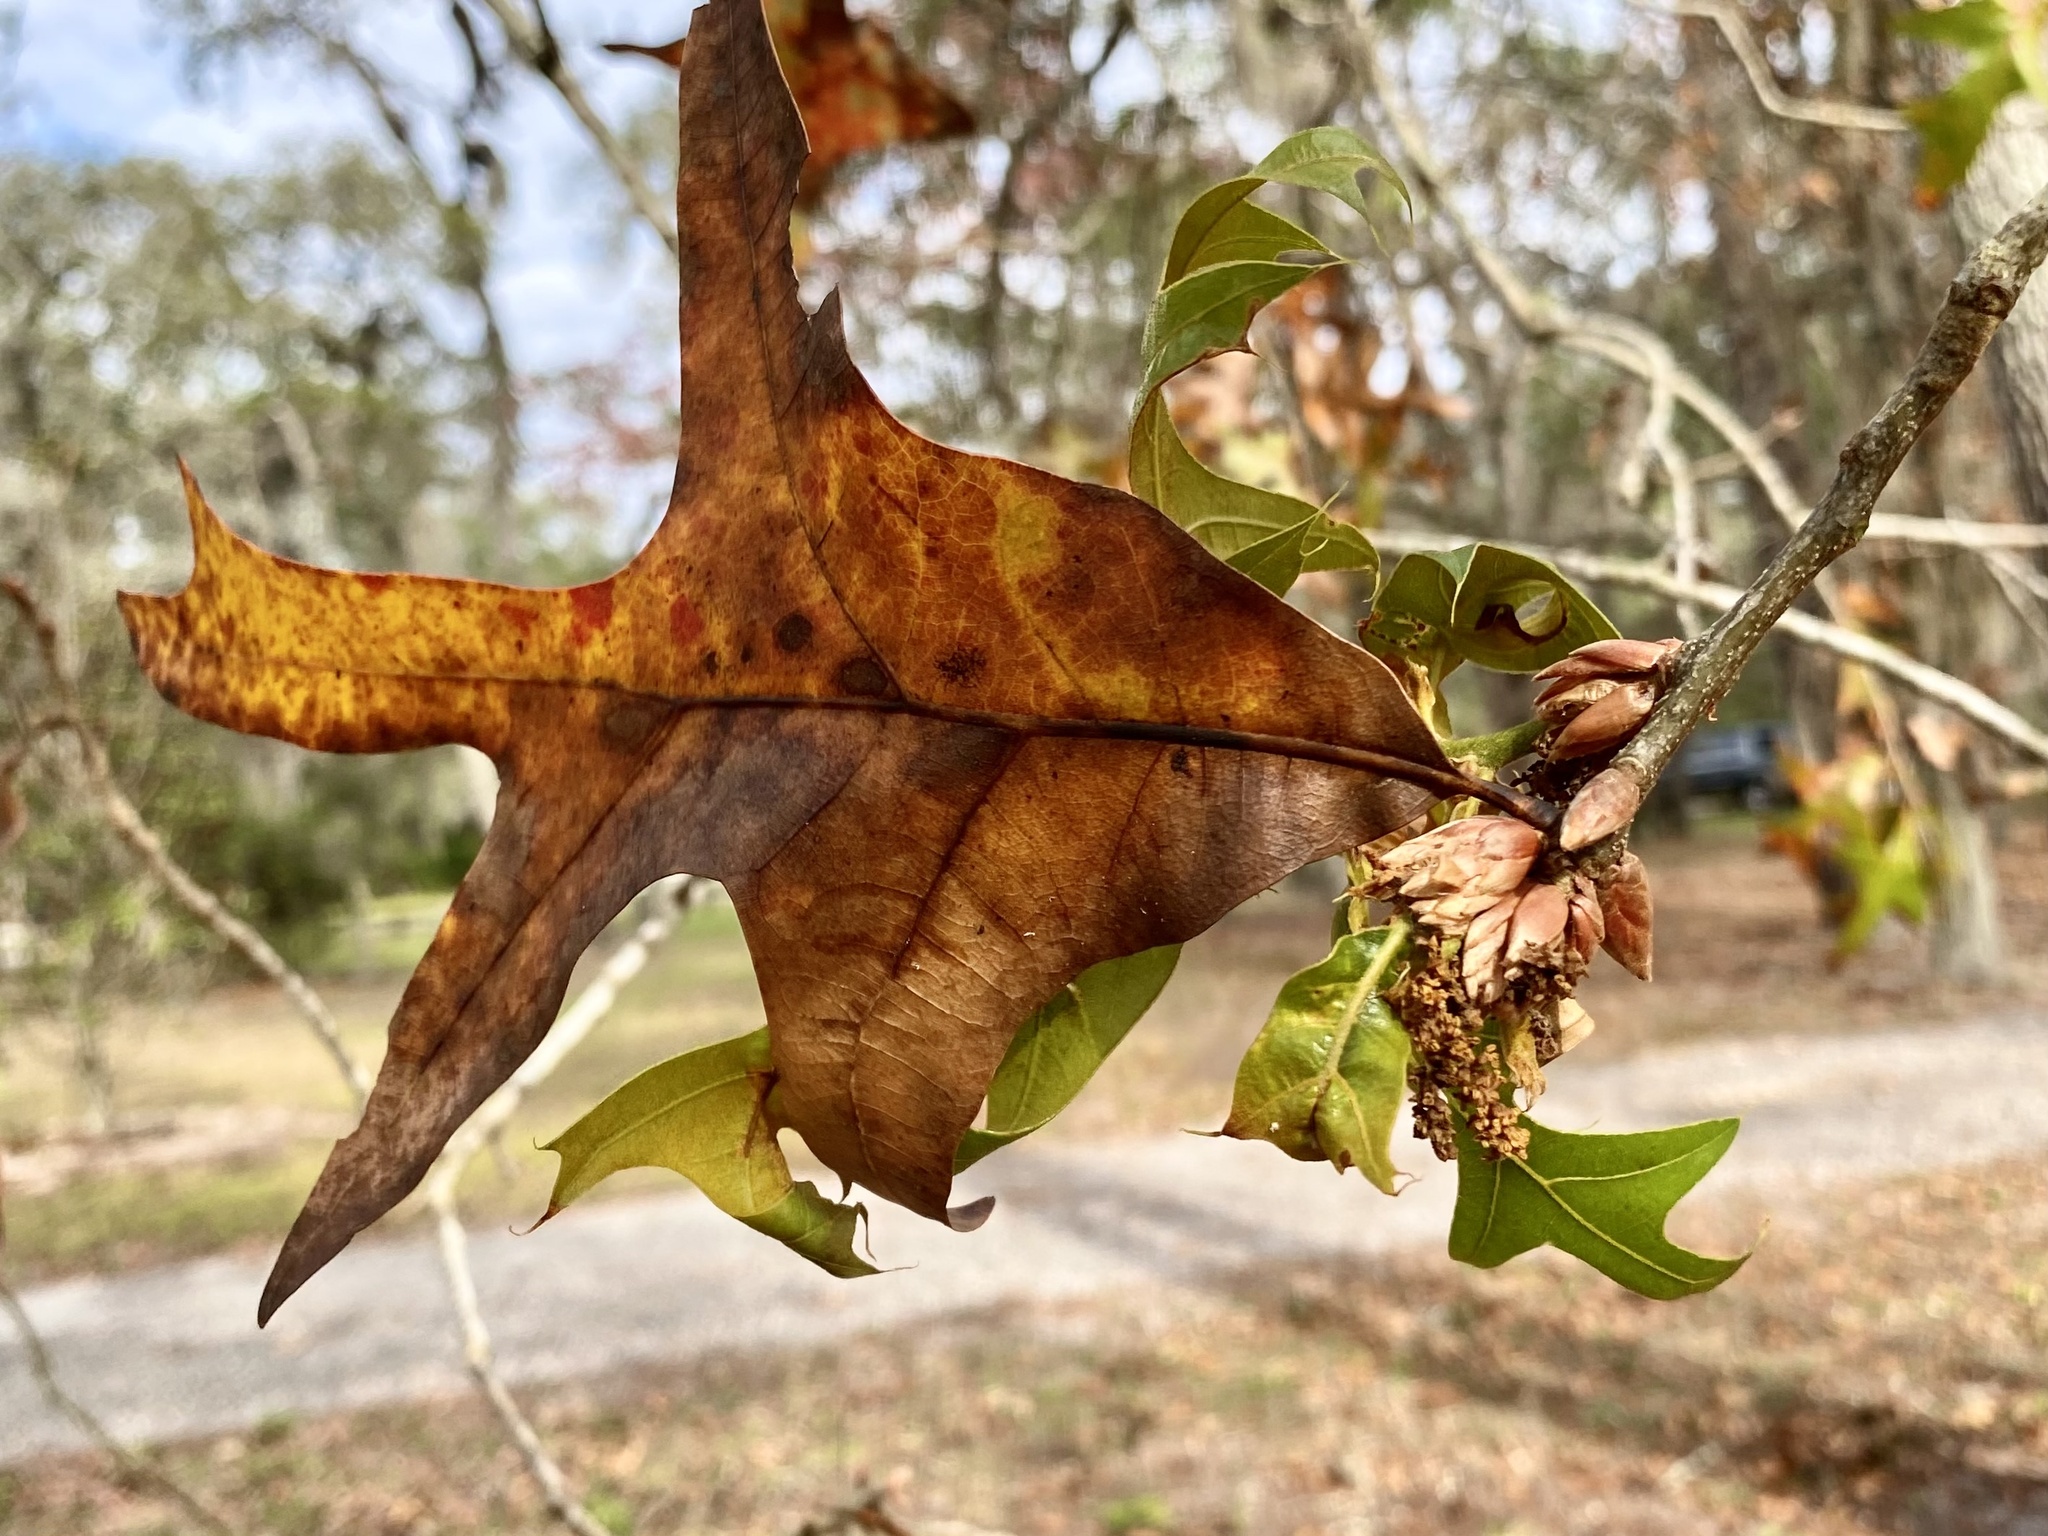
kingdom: Plantae
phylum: Tracheophyta
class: Magnoliopsida
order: Fagales
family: Fagaceae
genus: Quercus
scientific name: Quercus laevis
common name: Turkey oak
